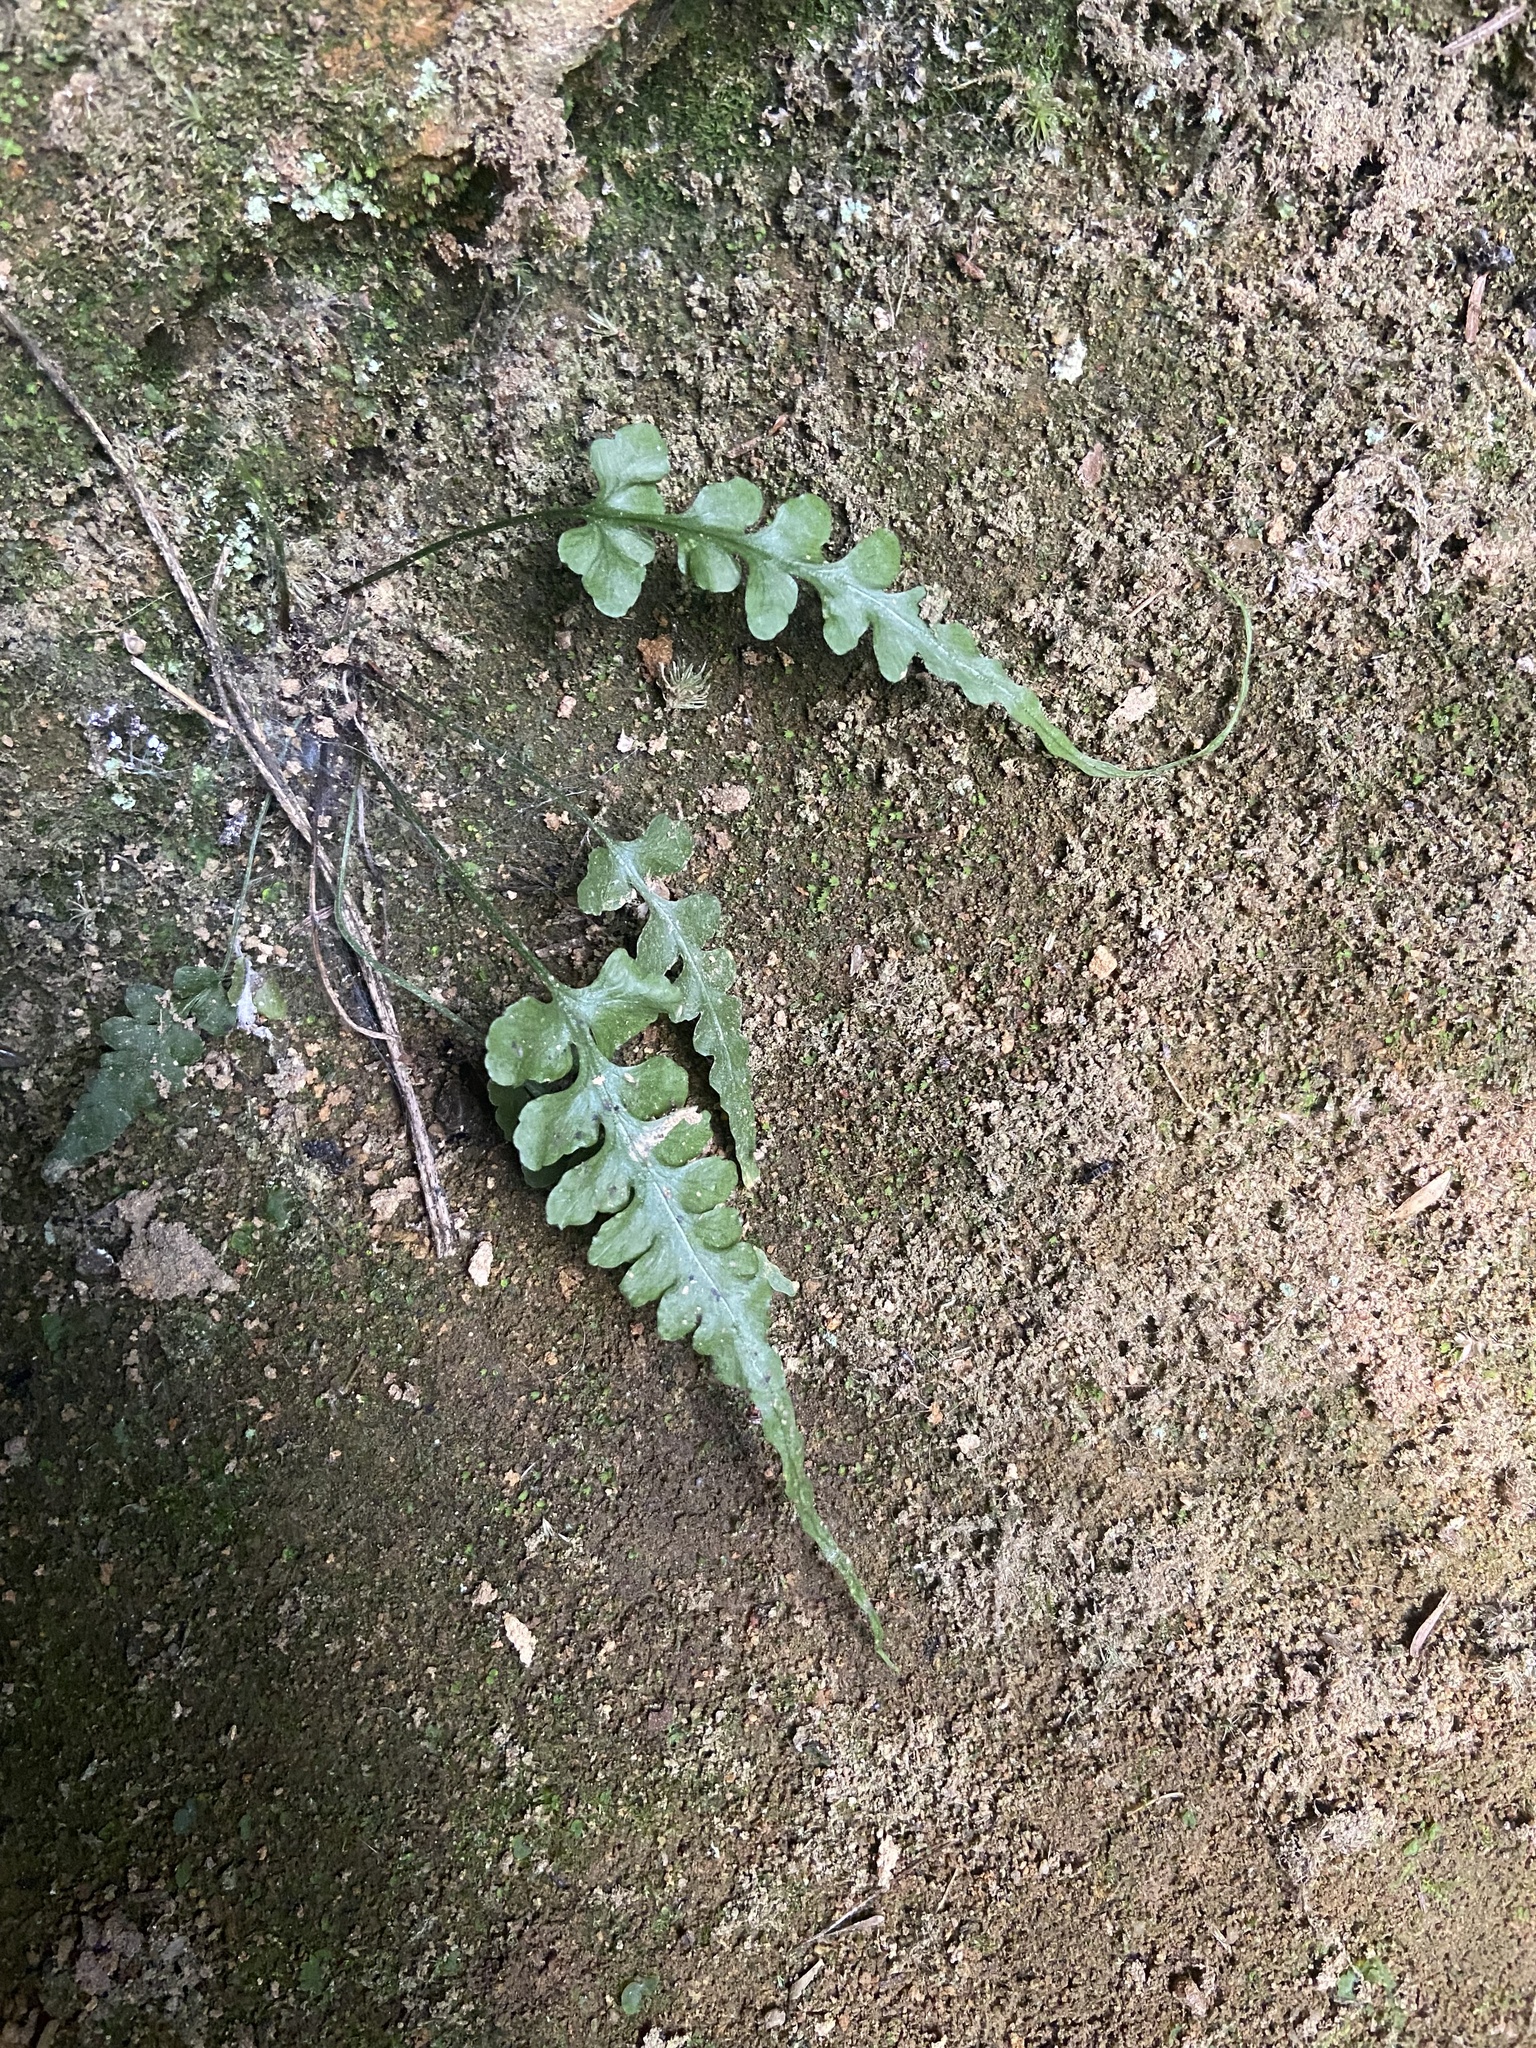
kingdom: Plantae
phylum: Tracheophyta
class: Polypodiopsida
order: Polypodiales
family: Aspleniaceae
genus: Asplenium
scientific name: Asplenium pinnatifidum
